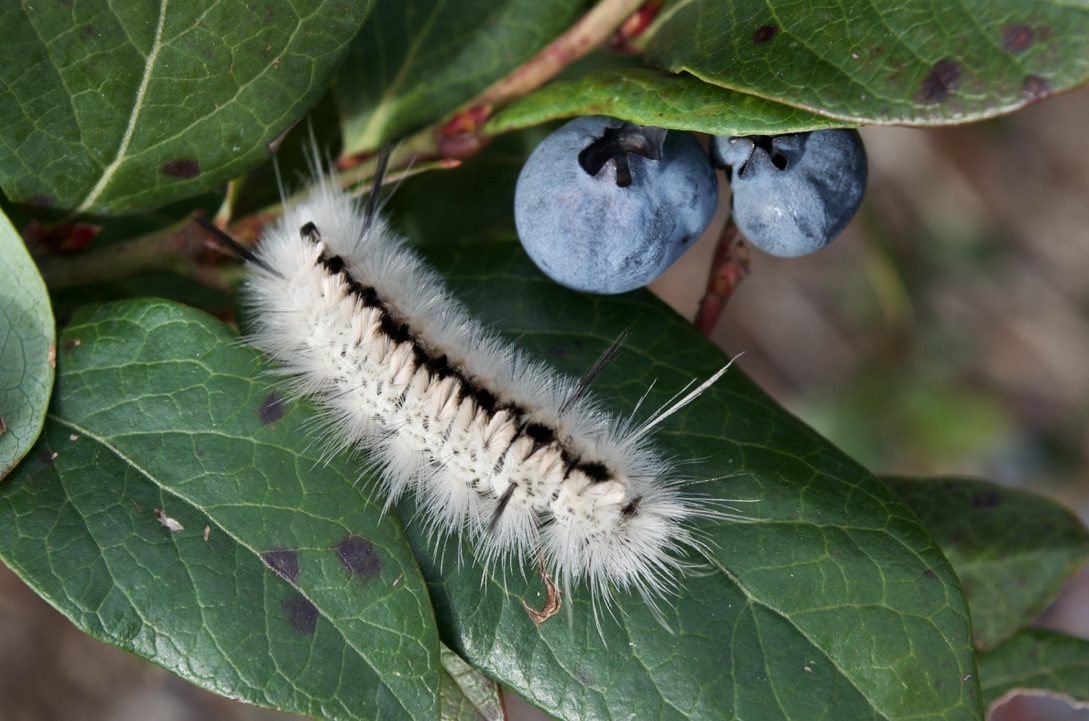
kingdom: Animalia
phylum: Arthropoda
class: Insecta
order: Lepidoptera
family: Erebidae
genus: Lophocampa
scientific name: Lophocampa caryae
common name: Hickory tussock moth
